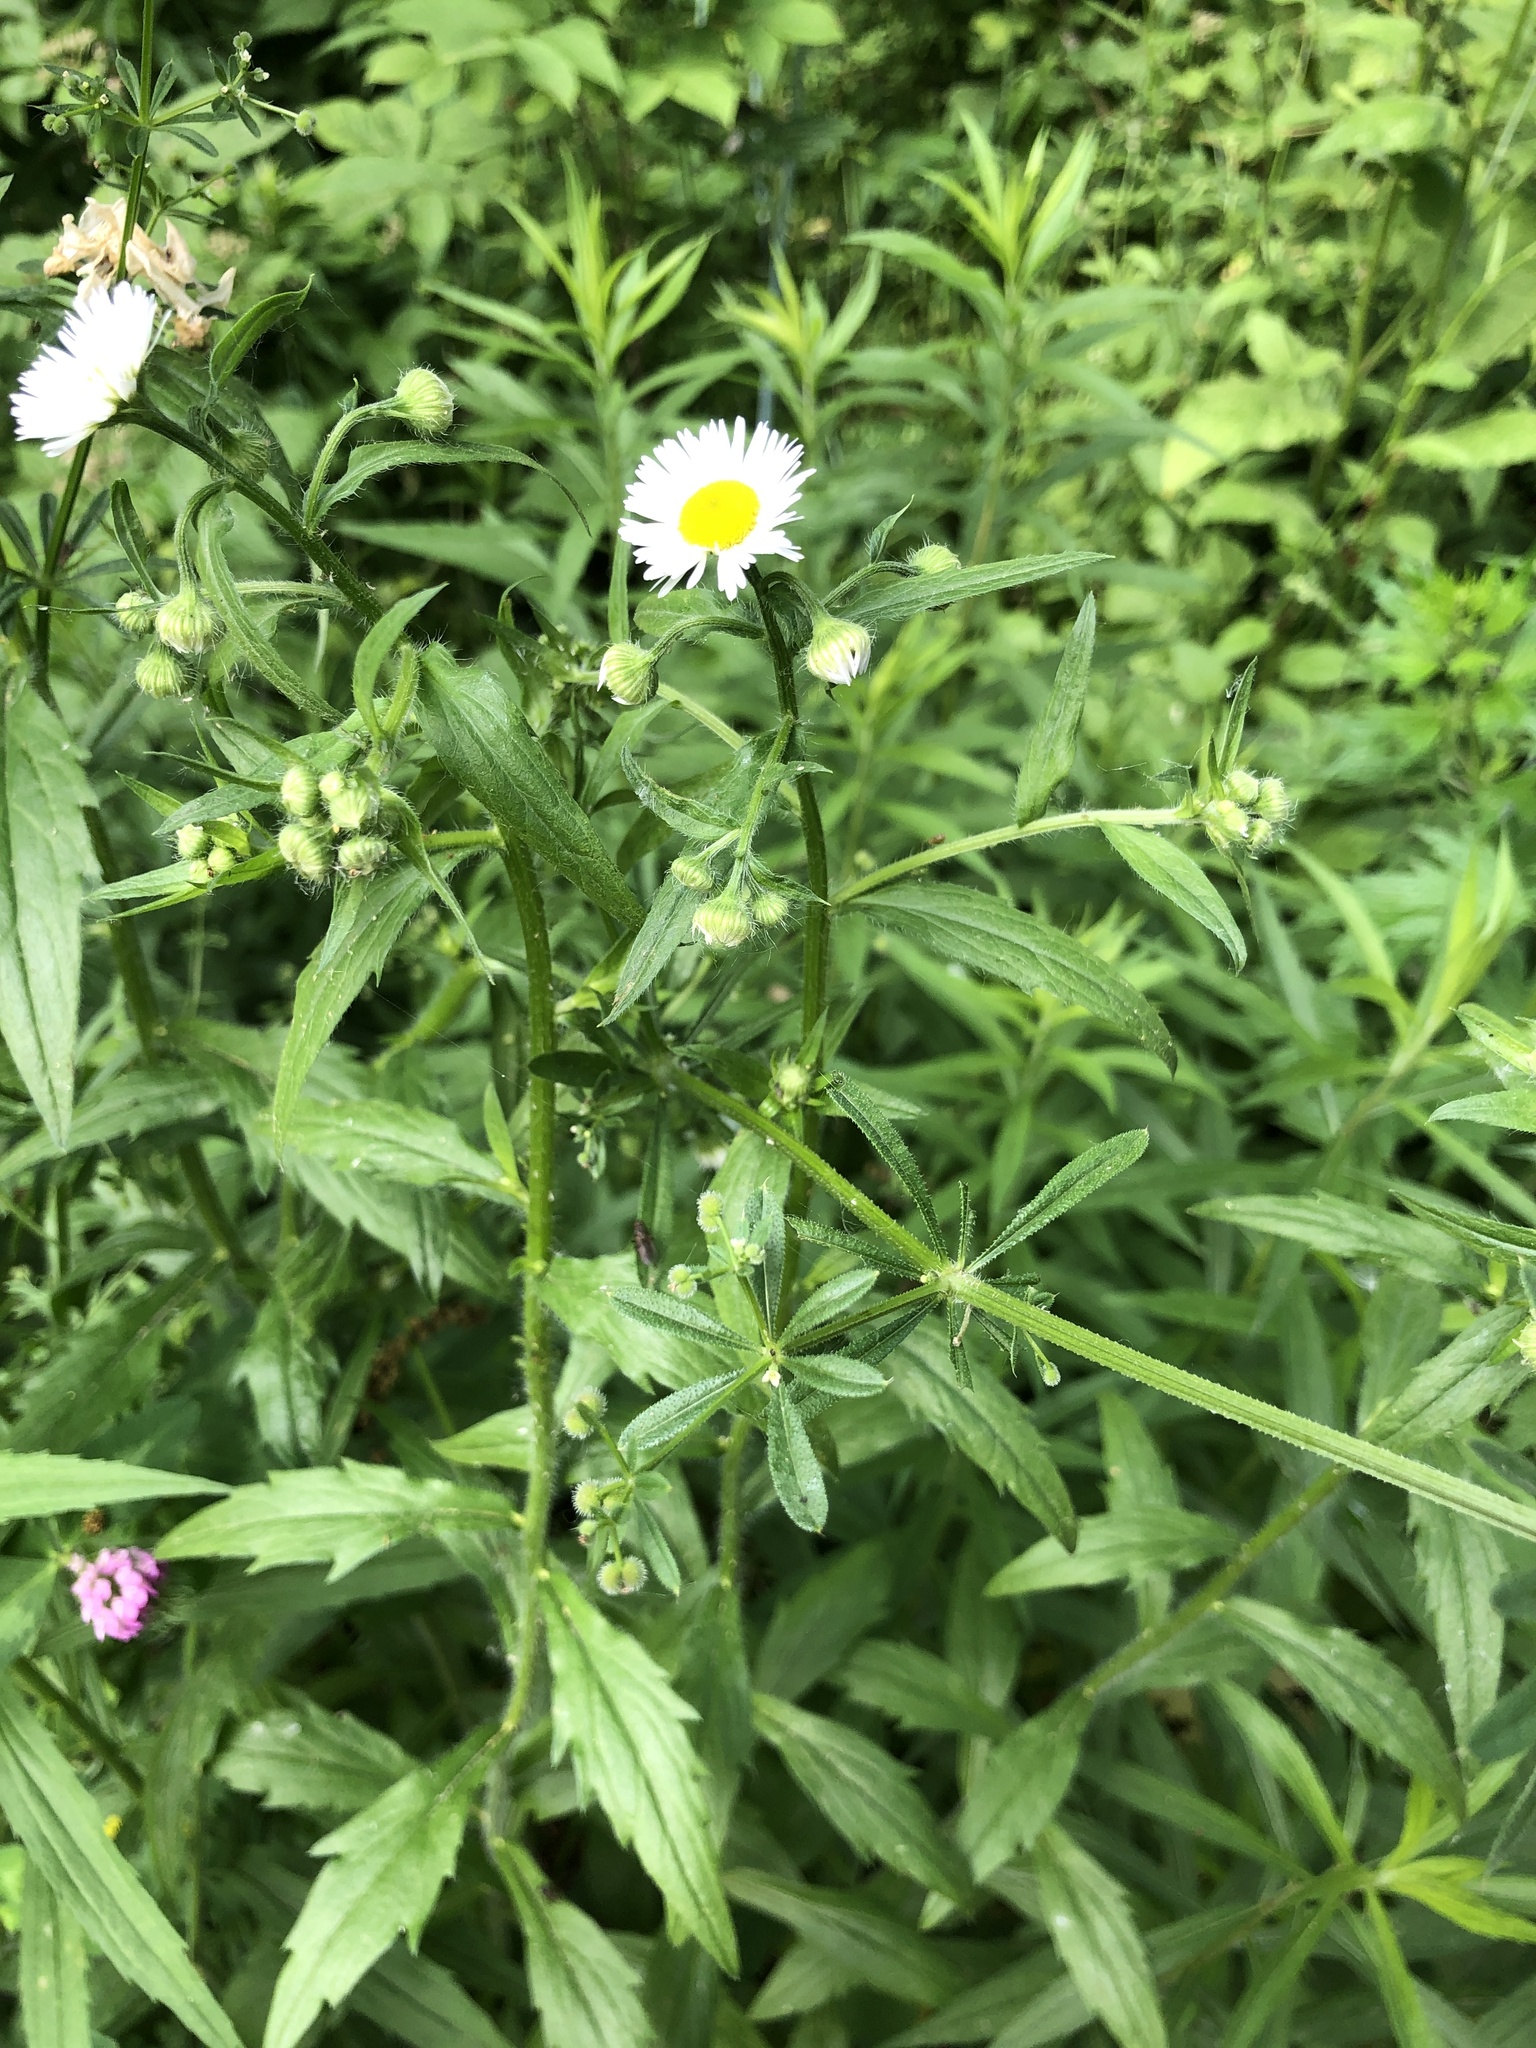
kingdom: Plantae
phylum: Tracheophyta
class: Magnoliopsida
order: Asterales
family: Asteraceae
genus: Erigeron
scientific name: Erigeron annuus
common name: Tall fleabane
